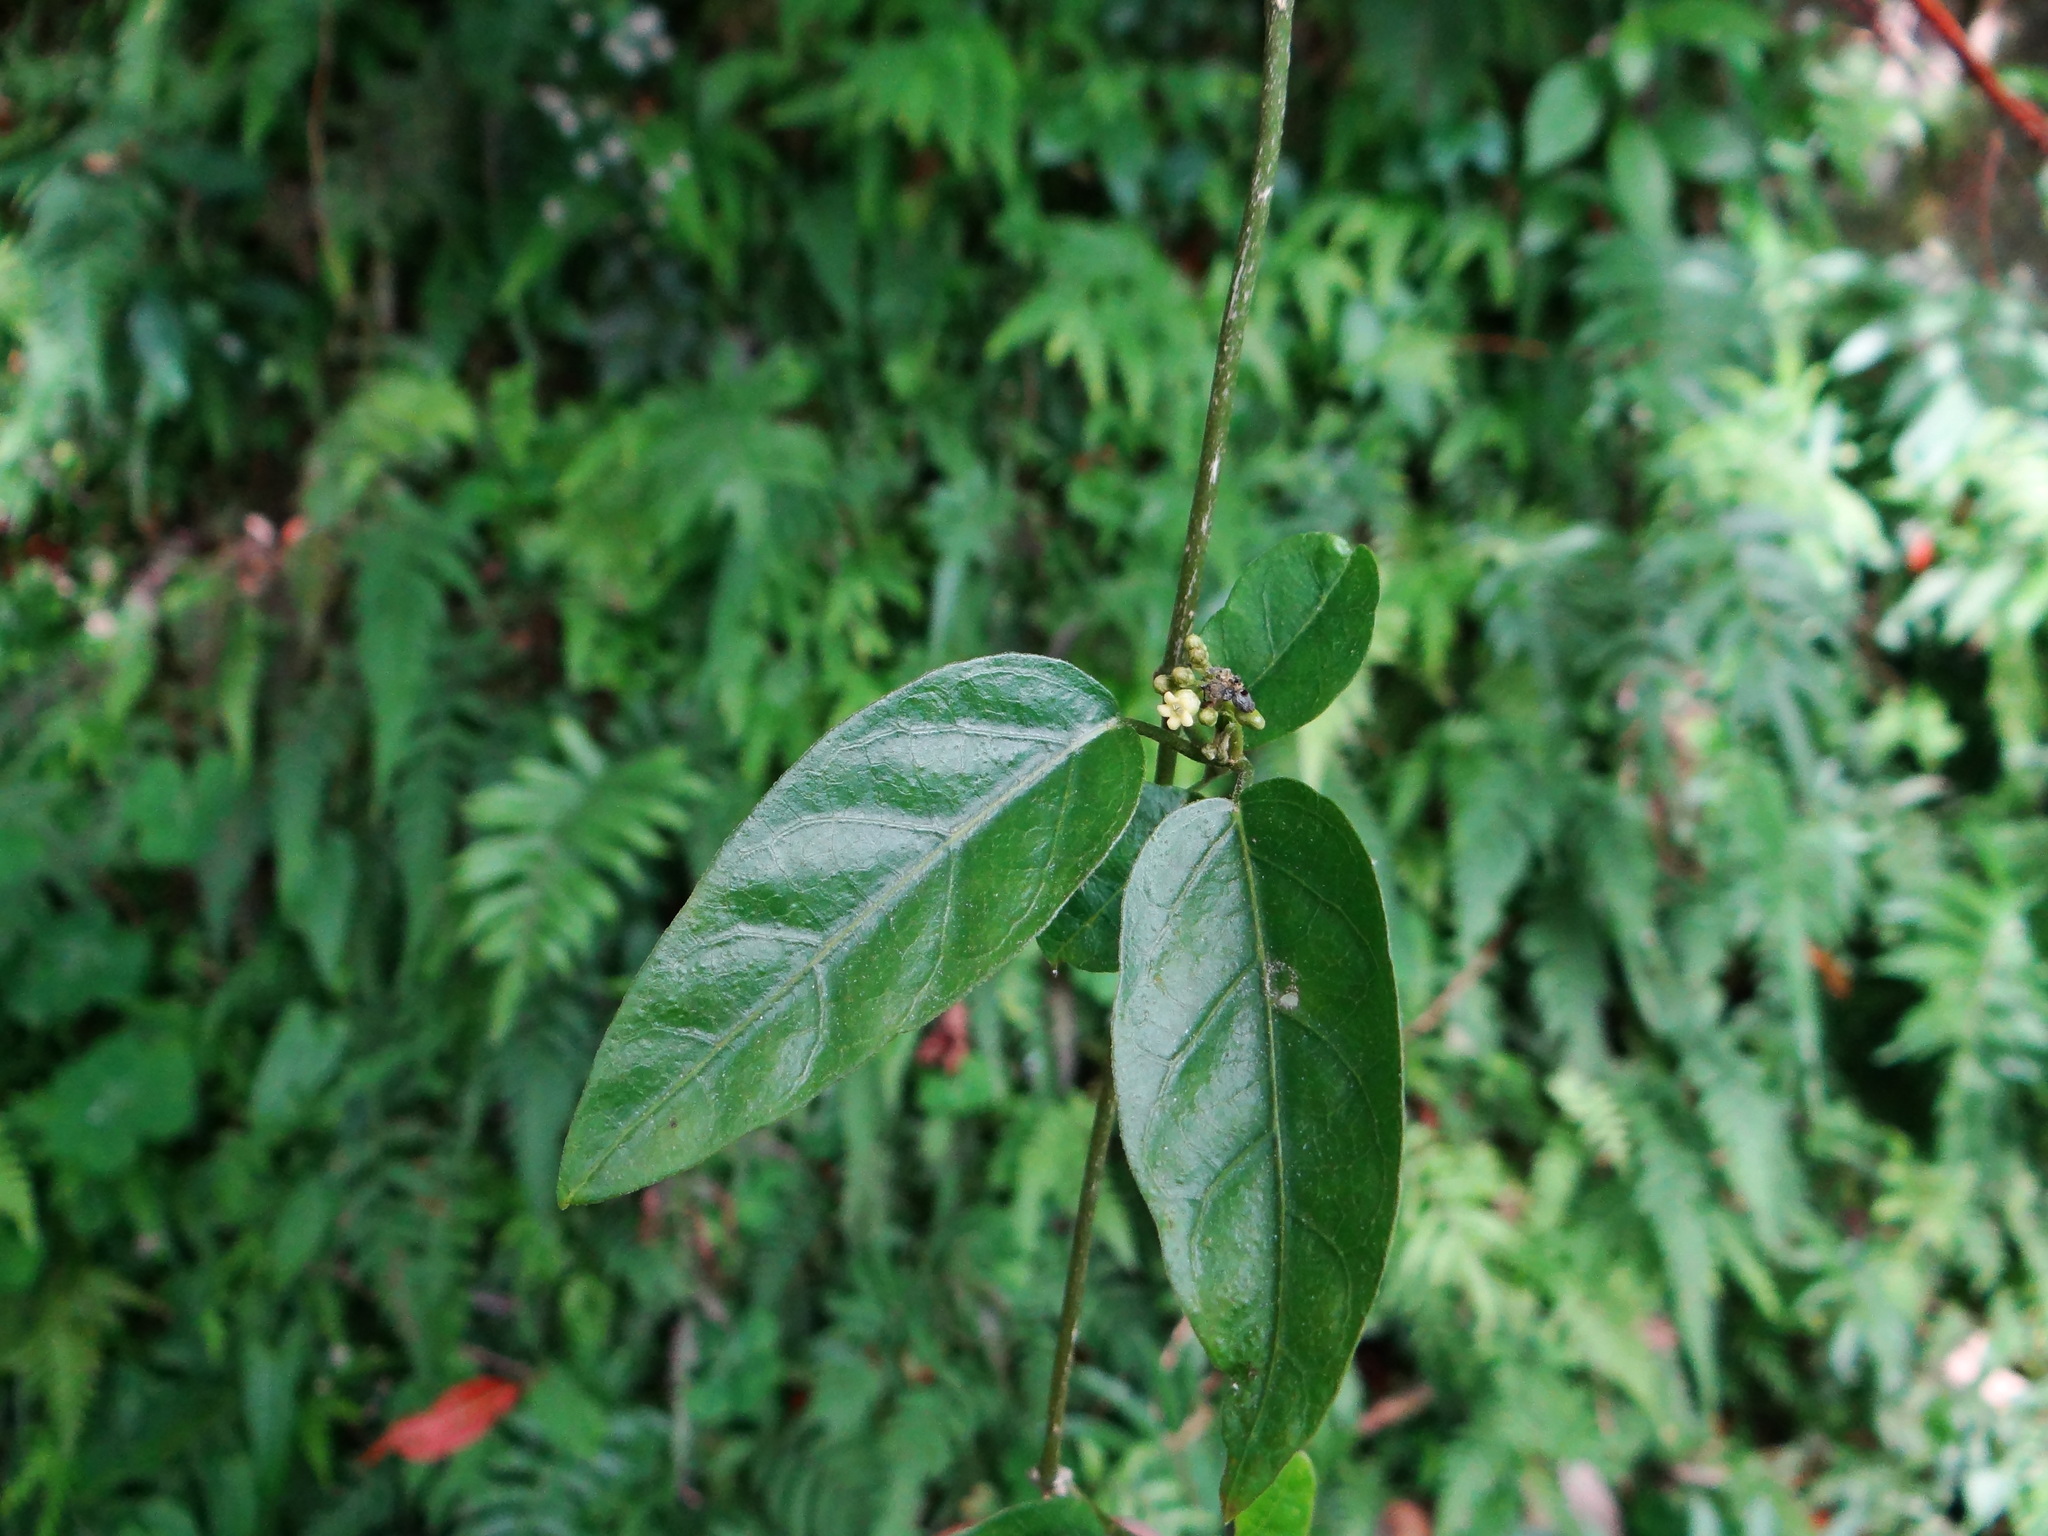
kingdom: Plantae
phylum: Tracheophyta
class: Magnoliopsida
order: Gentianales
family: Apocynaceae
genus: Marsdenia
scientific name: Marsdenia tinctoria
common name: Climbing-indigo
